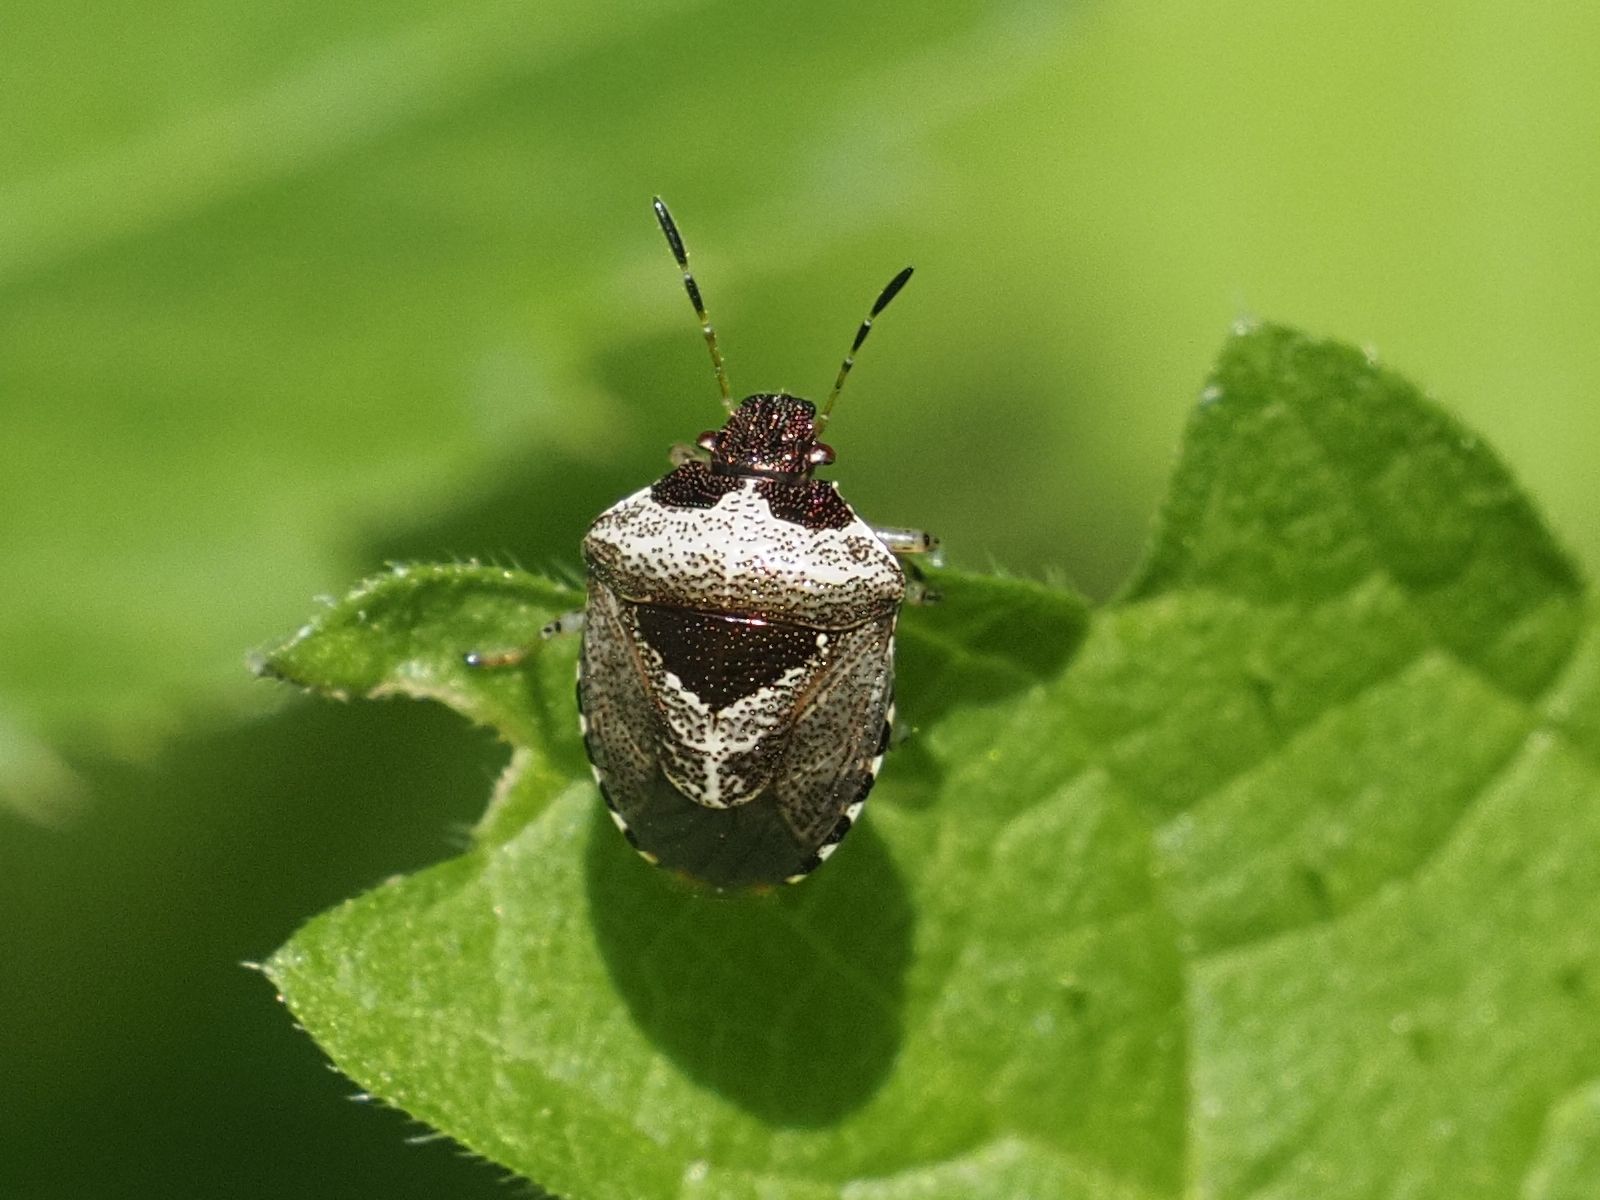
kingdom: Animalia
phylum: Arthropoda
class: Insecta
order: Hemiptera
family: Pentatomidae
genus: Eysarcoris
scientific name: Eysarcoris venustissimus
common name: Woundwort shieldbug
